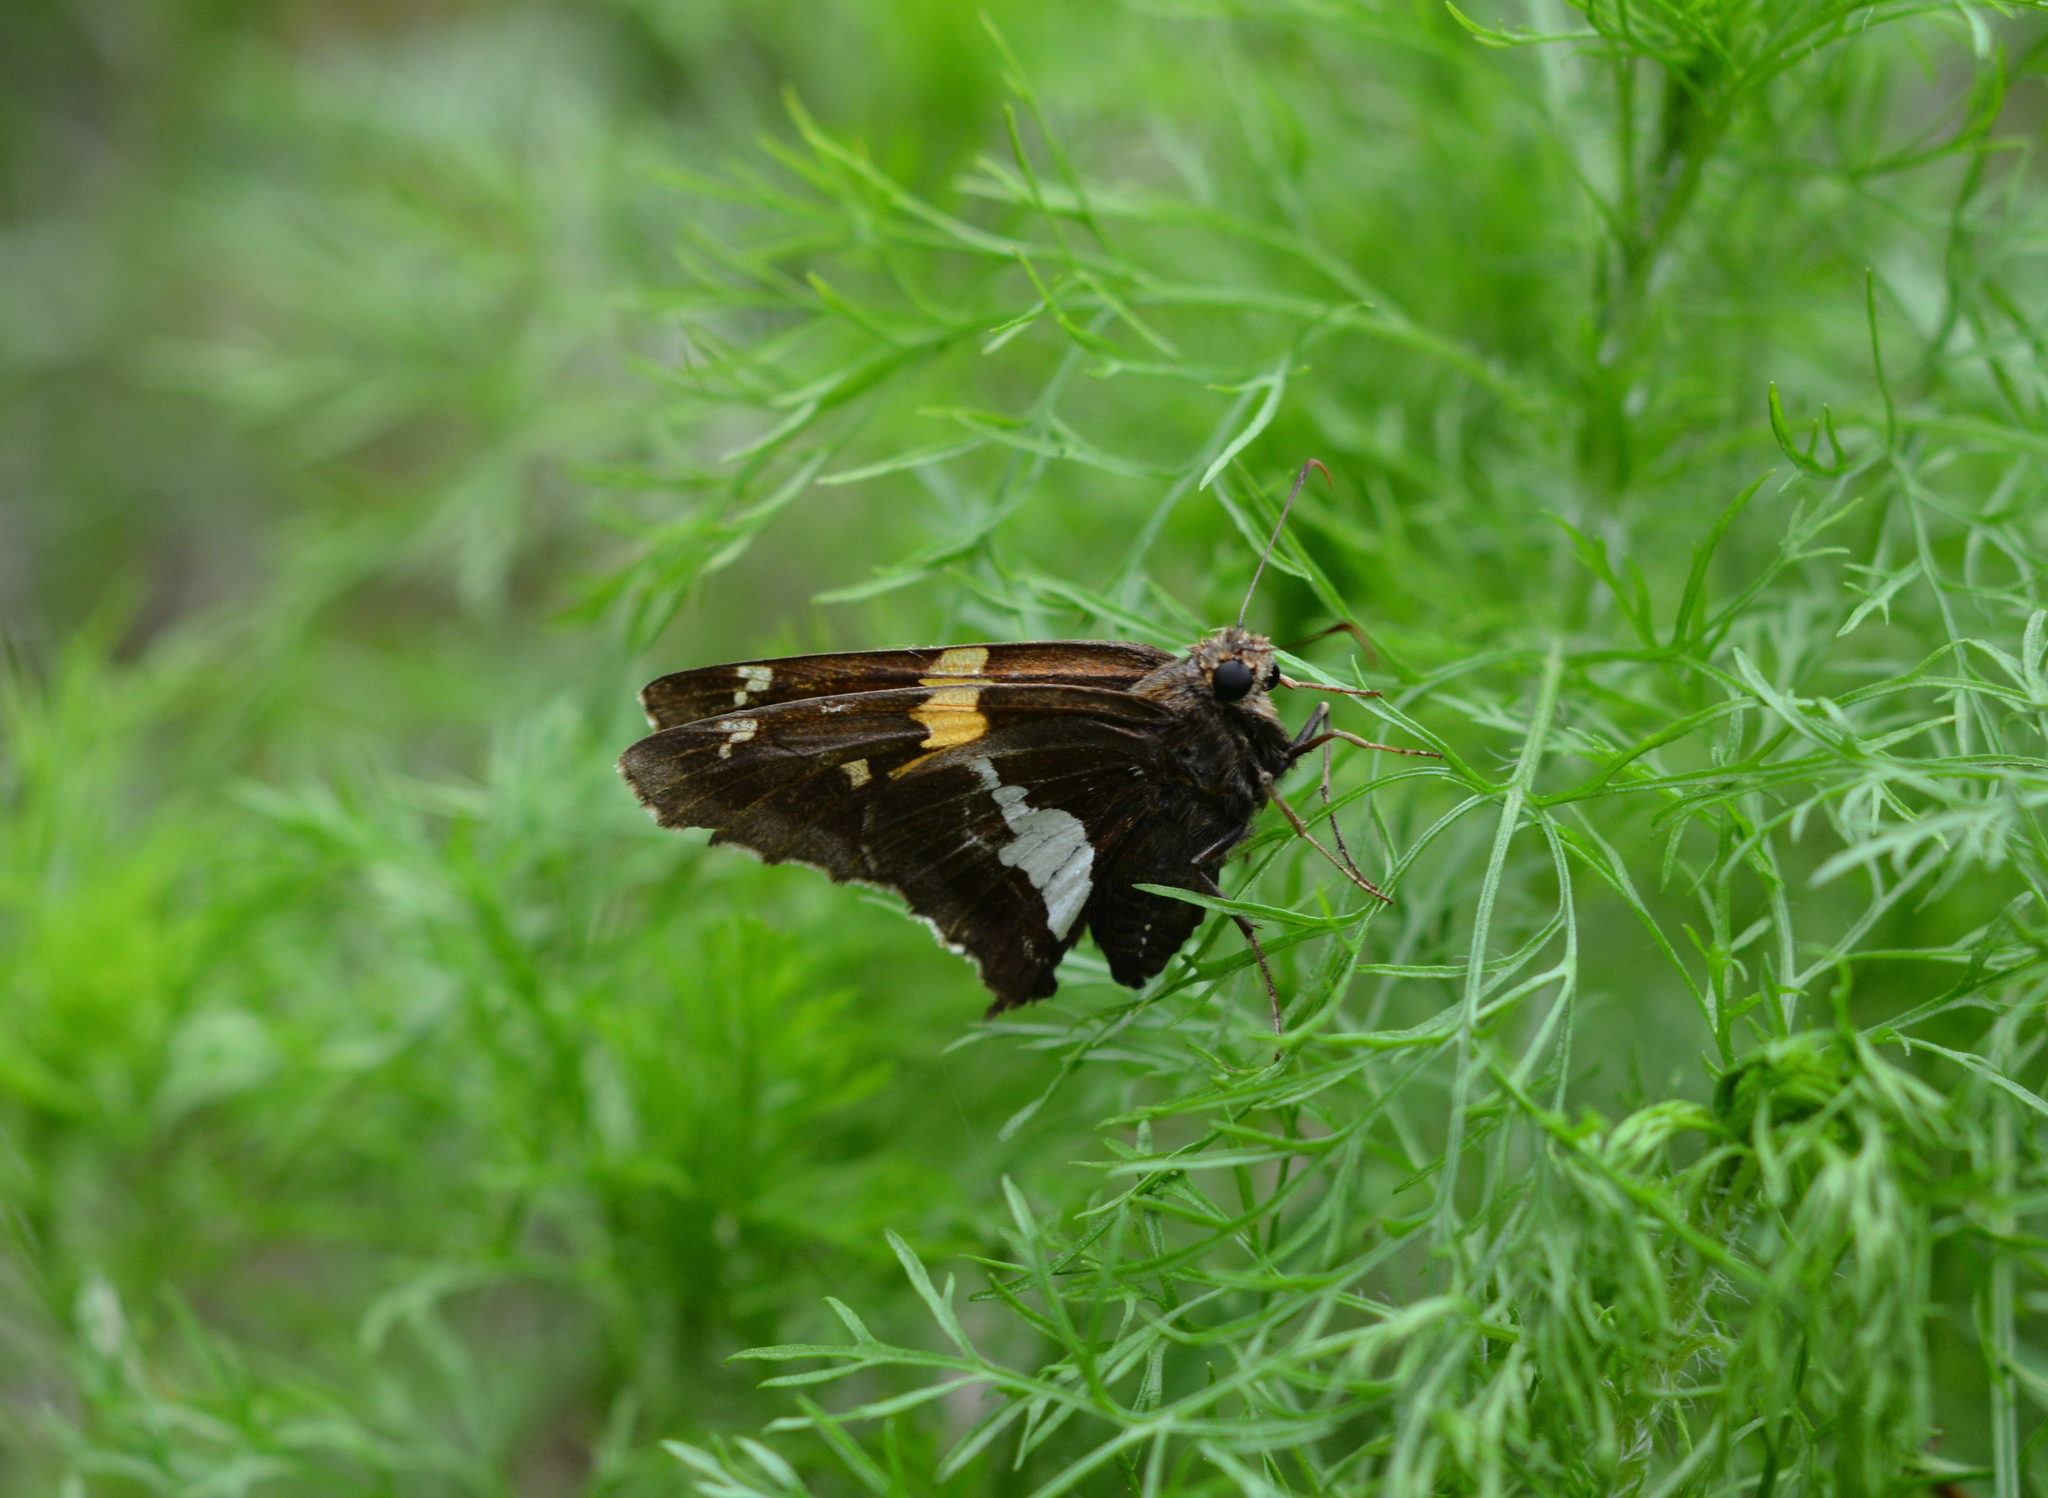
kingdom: Animalia
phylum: Arthropoda
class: Insecta
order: Lepidoptera
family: Hesperiidae
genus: Epargyreus
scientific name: Epargyreus clarus
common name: Silver-spotted skipper
